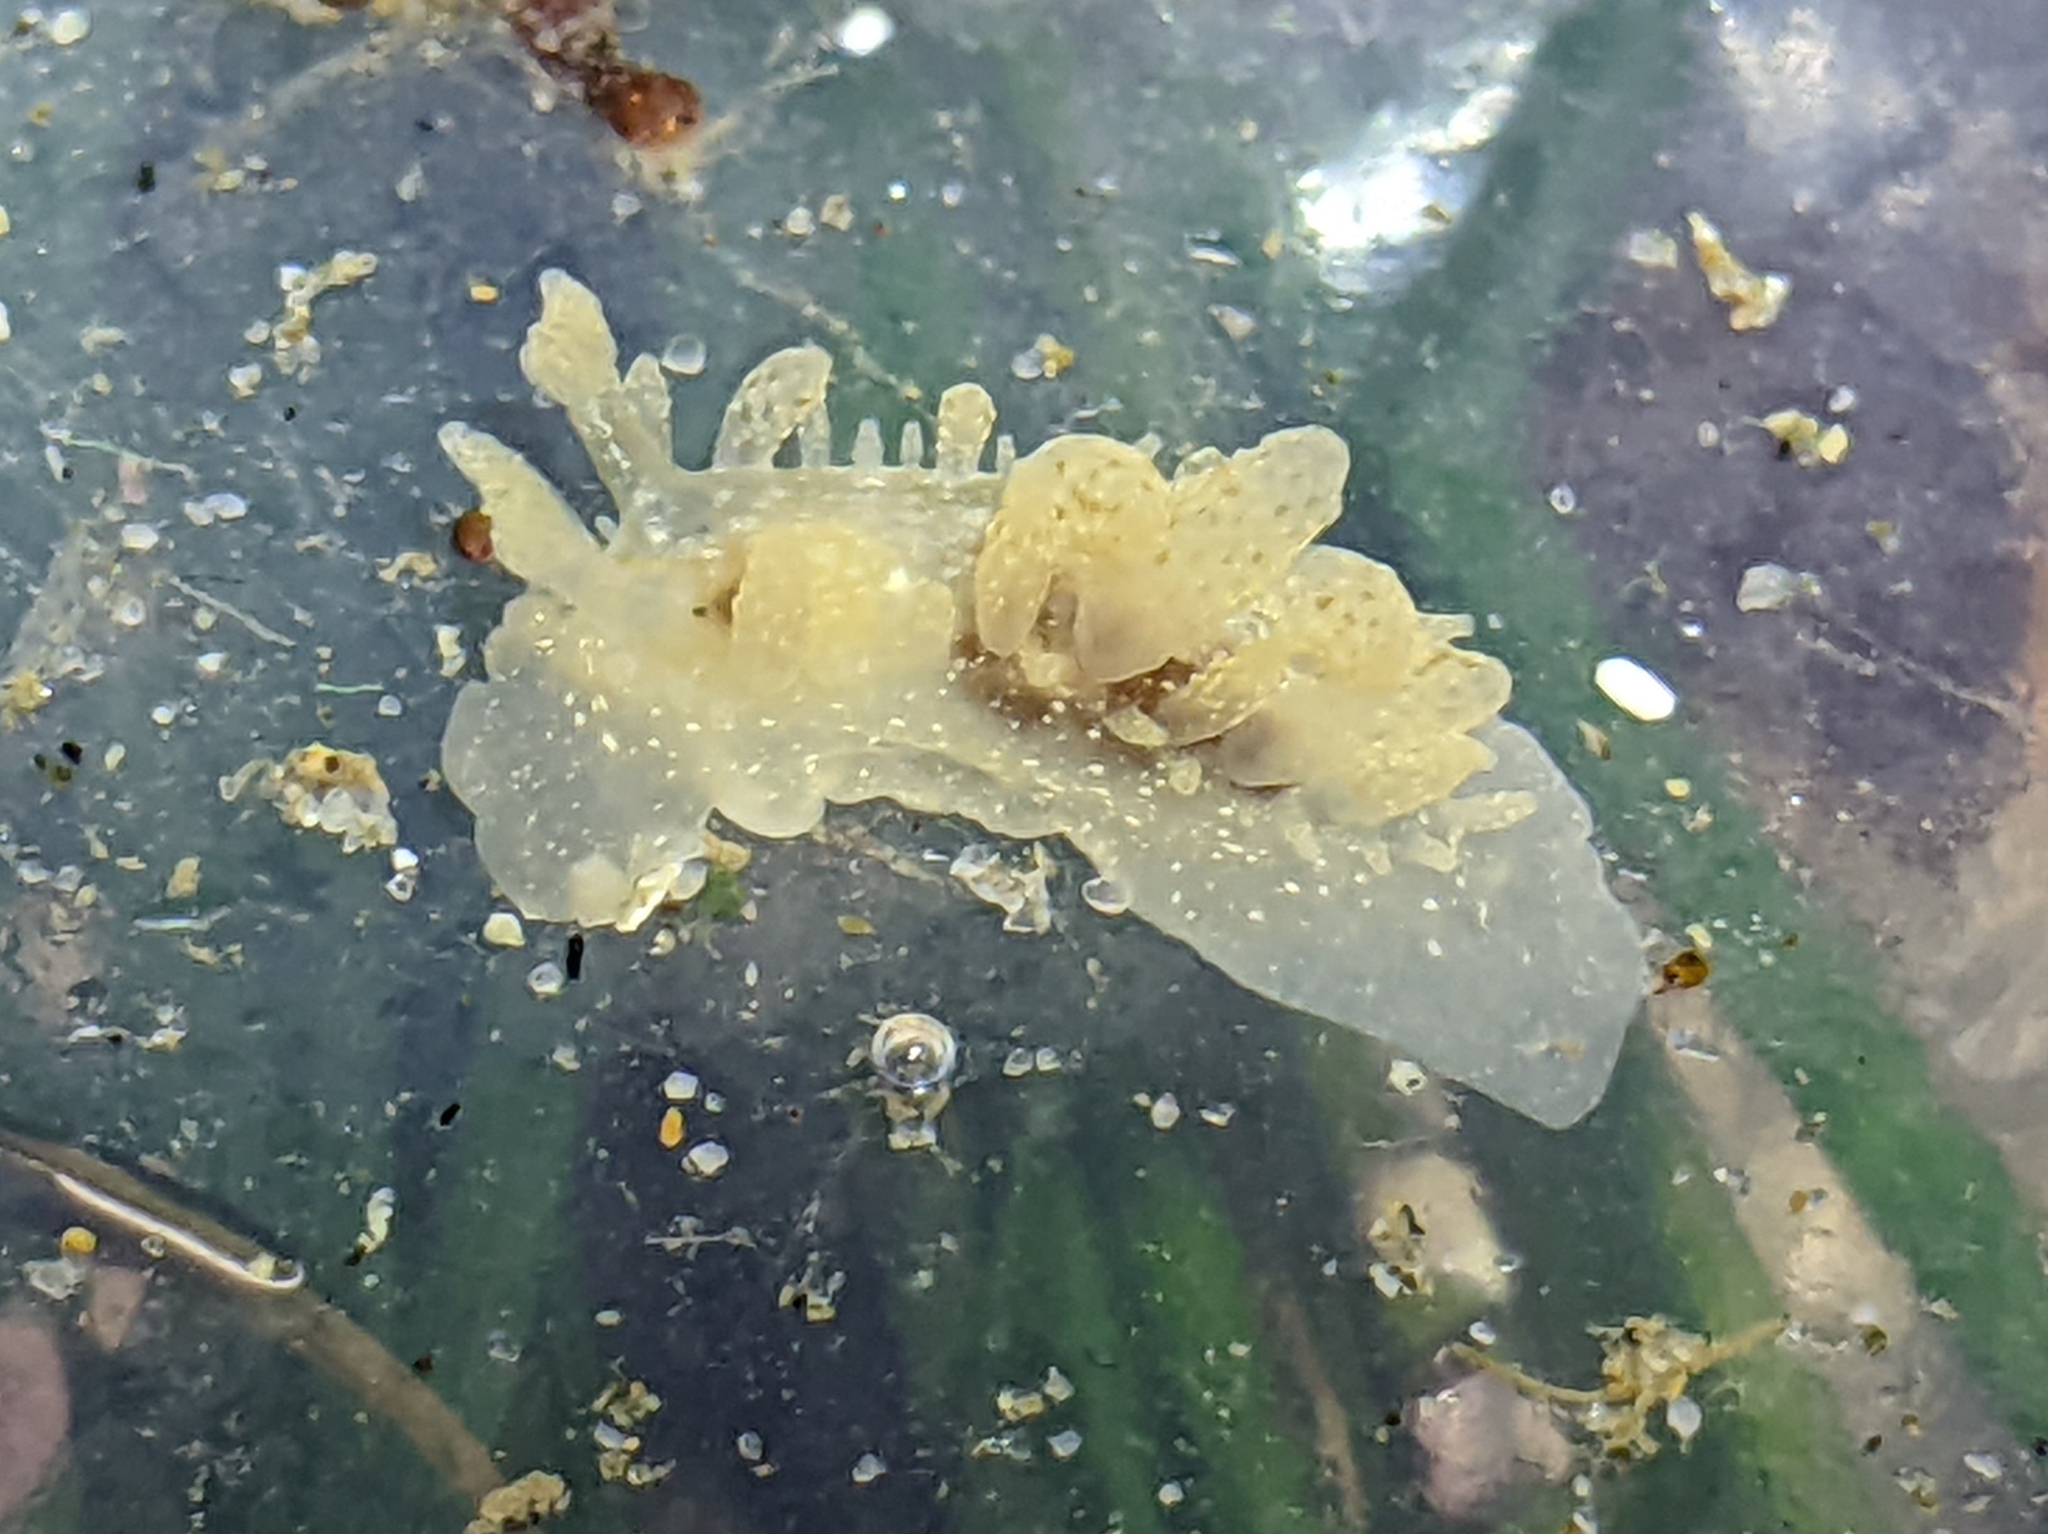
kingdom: Animalia
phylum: Mollusca
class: Gastropoda
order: Nudibranchia
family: Dironidae
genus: Dirona
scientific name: Dirona picta
